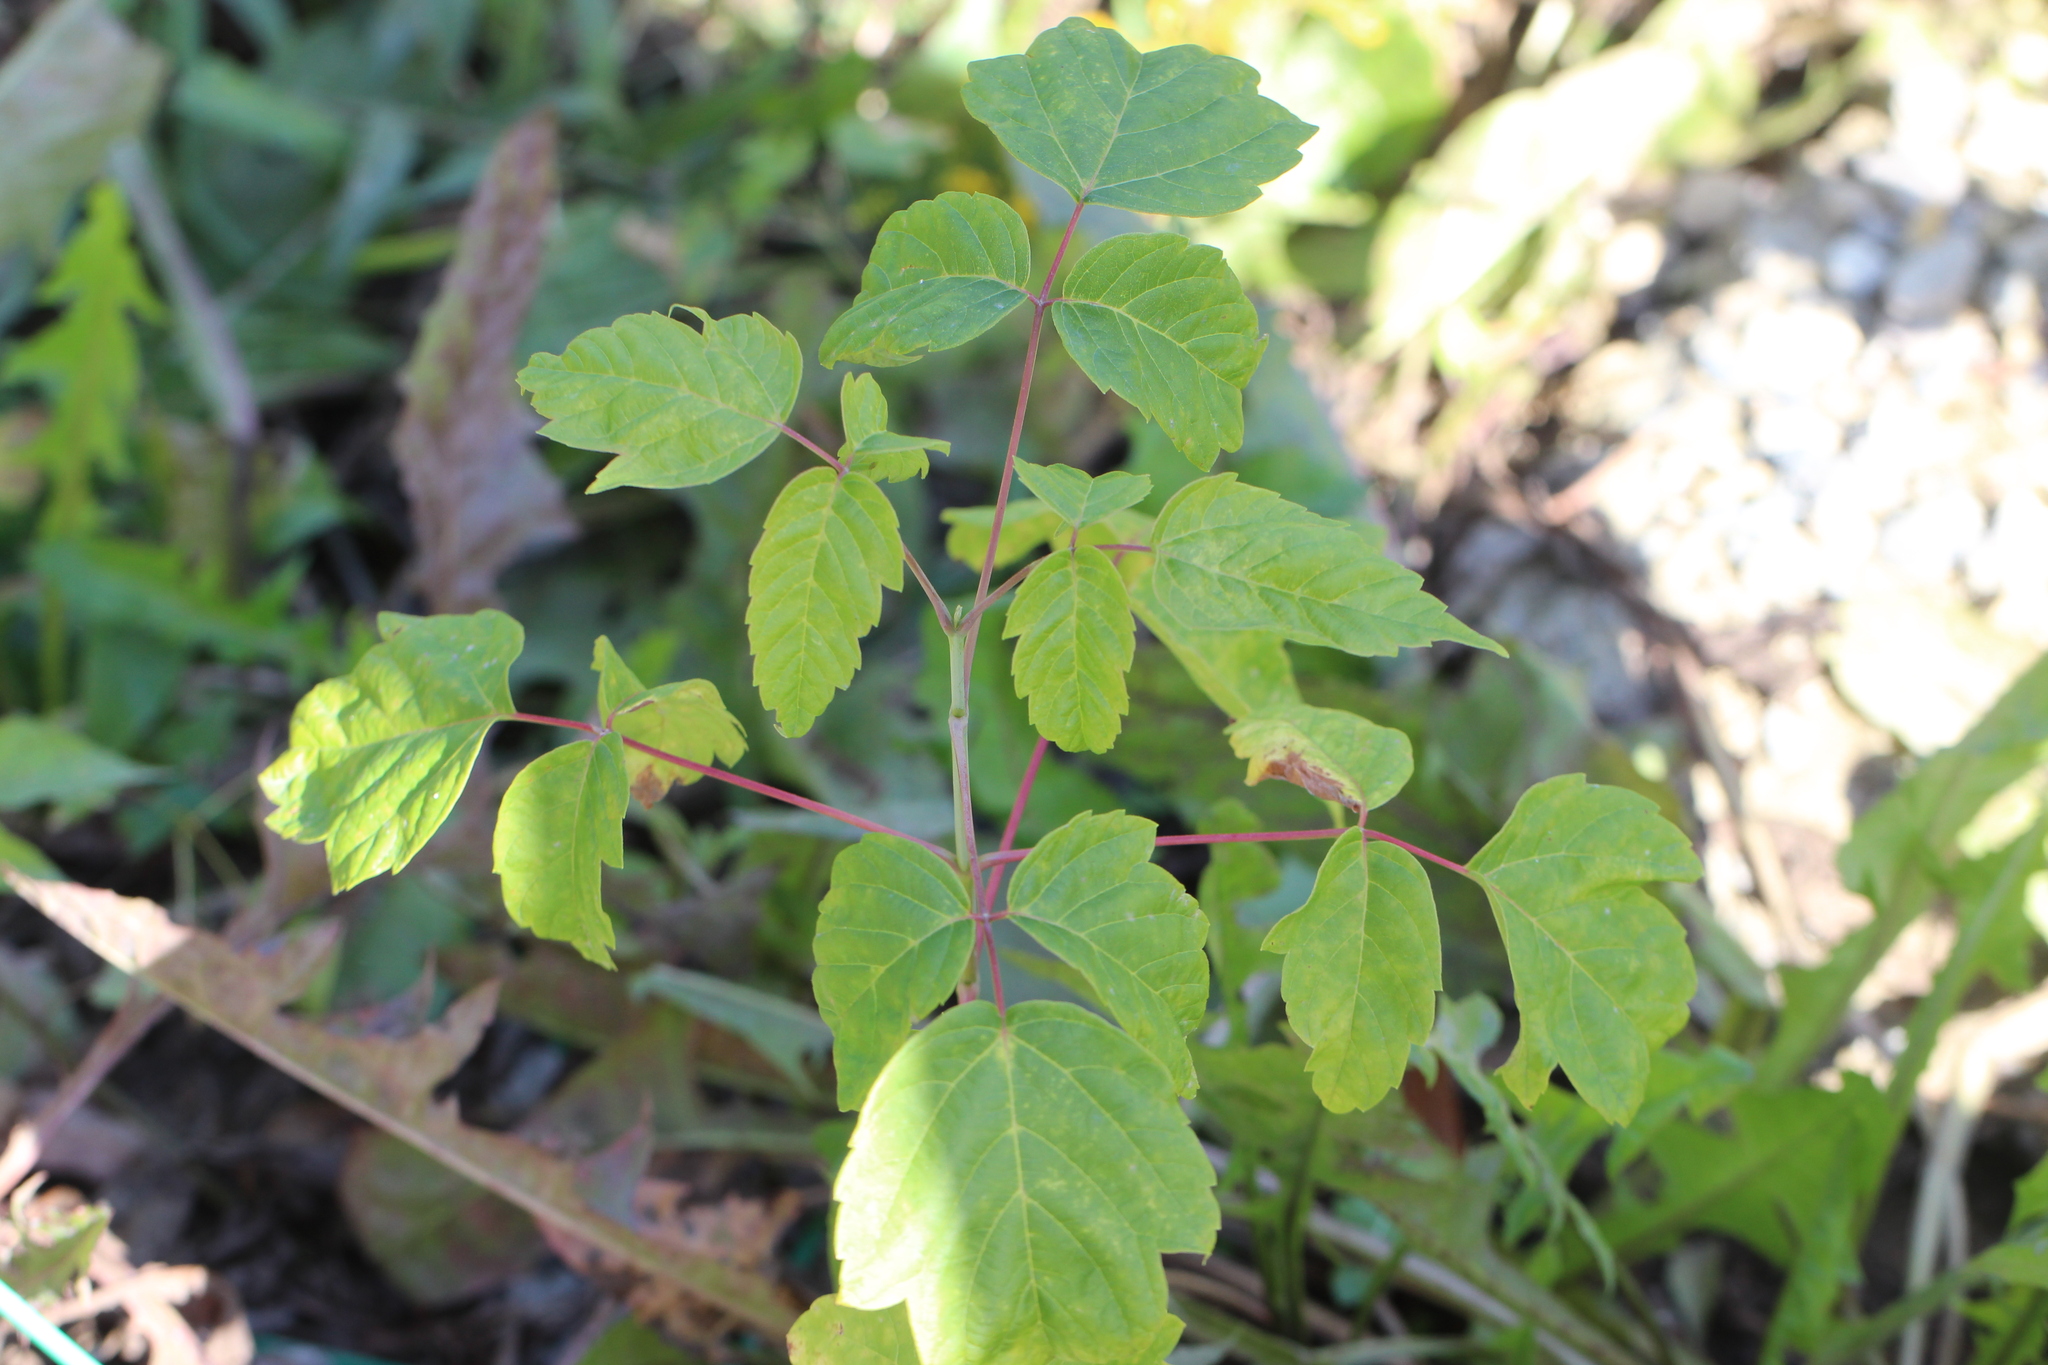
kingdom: Plantae
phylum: Tracheophyta
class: Magnoliopsida
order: Sapindales
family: Sapindaceae
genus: Acer
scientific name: Acer negundo
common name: Ashleaf maple
